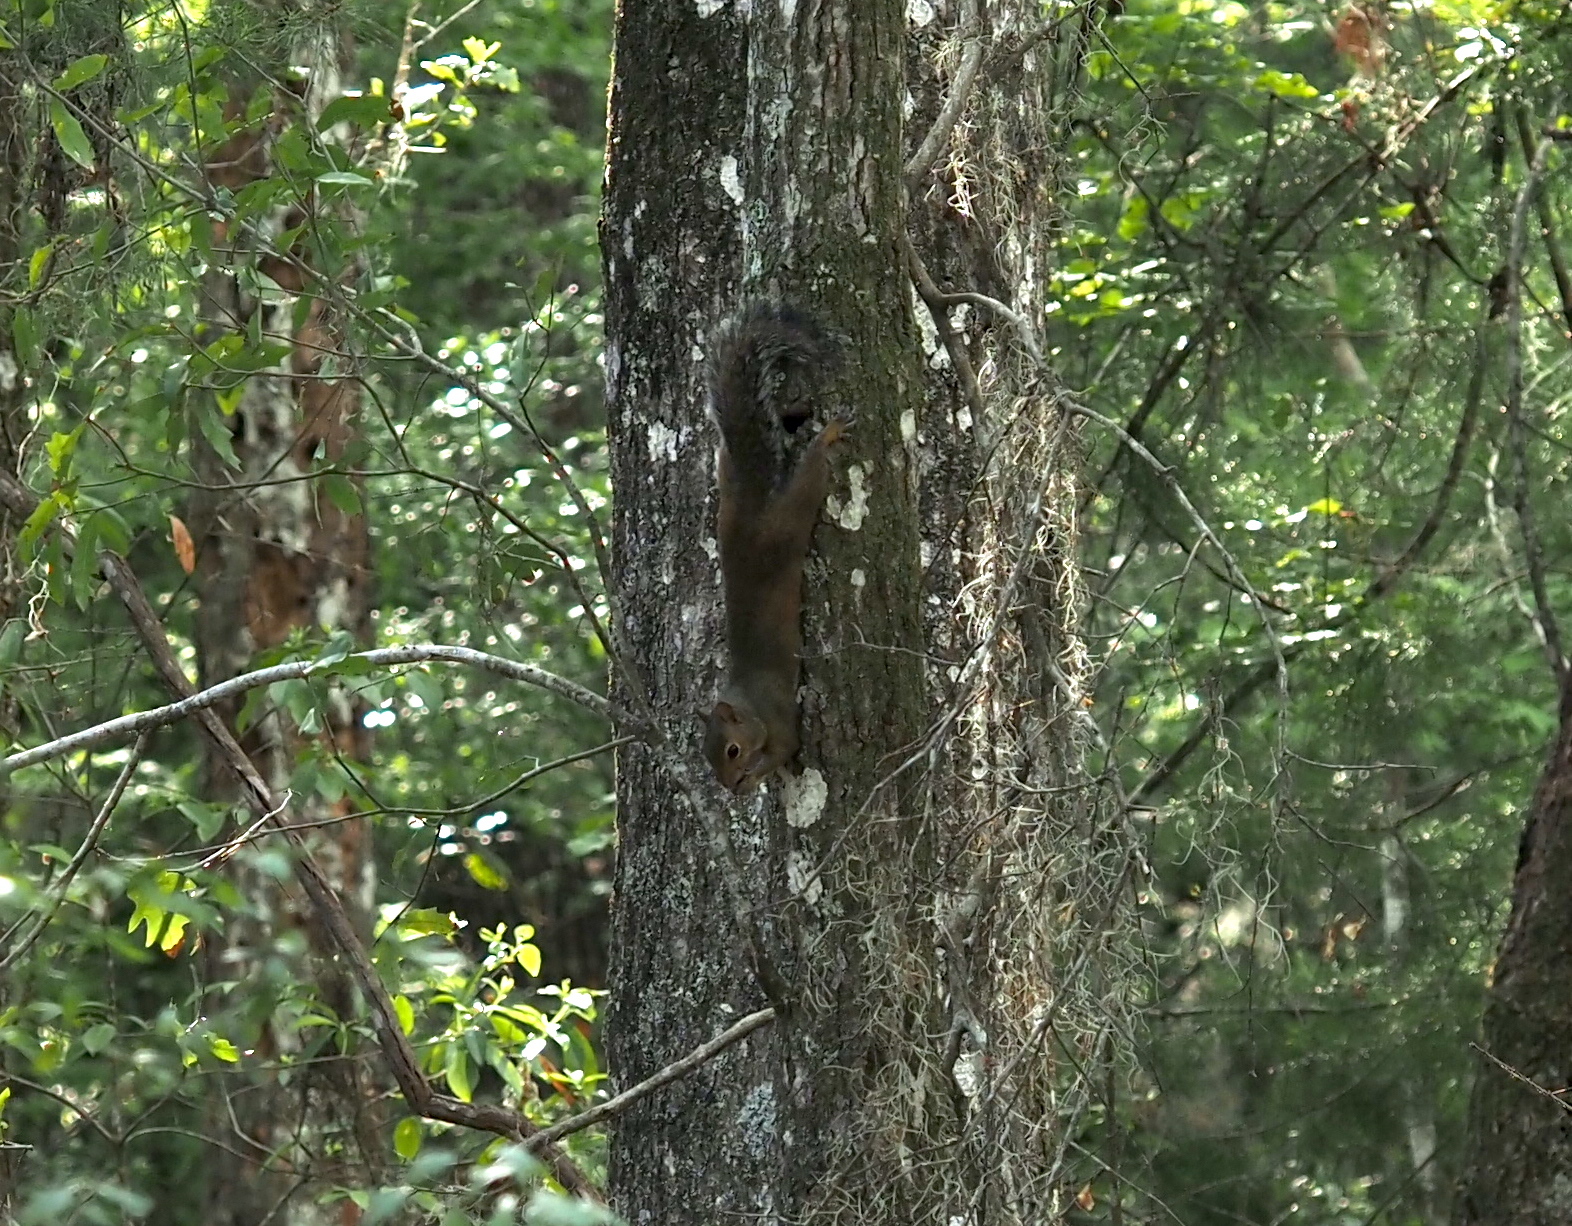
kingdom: Animalia
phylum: Chordata
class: Mammalia
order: Rodentia
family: Sciuridae
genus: Sciurus
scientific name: Sciurus carolinensis
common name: Eastern gray squirrel
